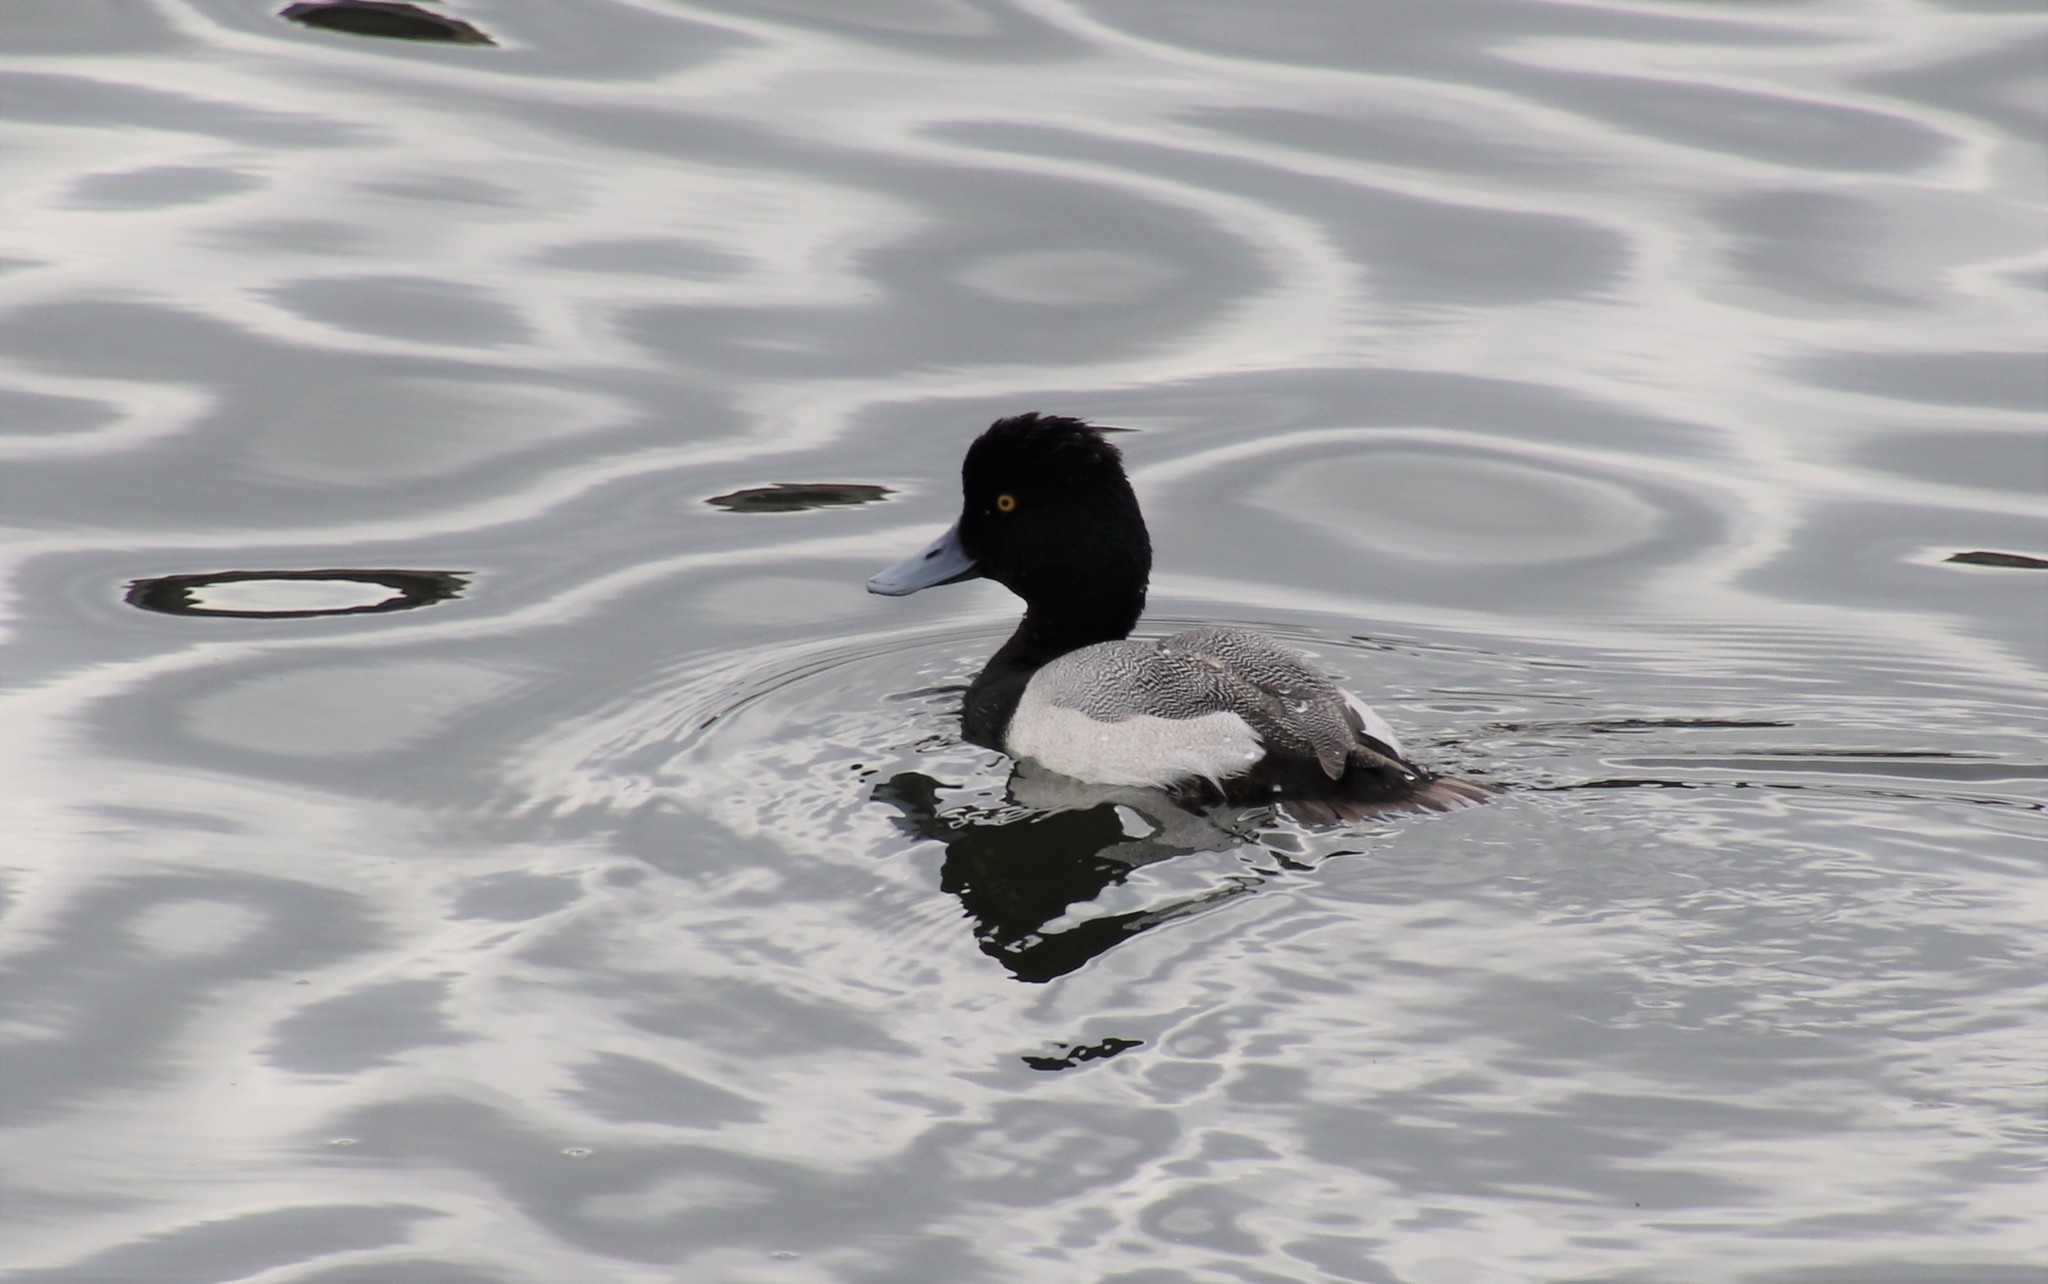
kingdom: Animalia
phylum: Chordata
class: Aves
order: Anseriformes
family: Anatidae
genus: Aythya
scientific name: Aythya affinis
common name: Lesser scaup
